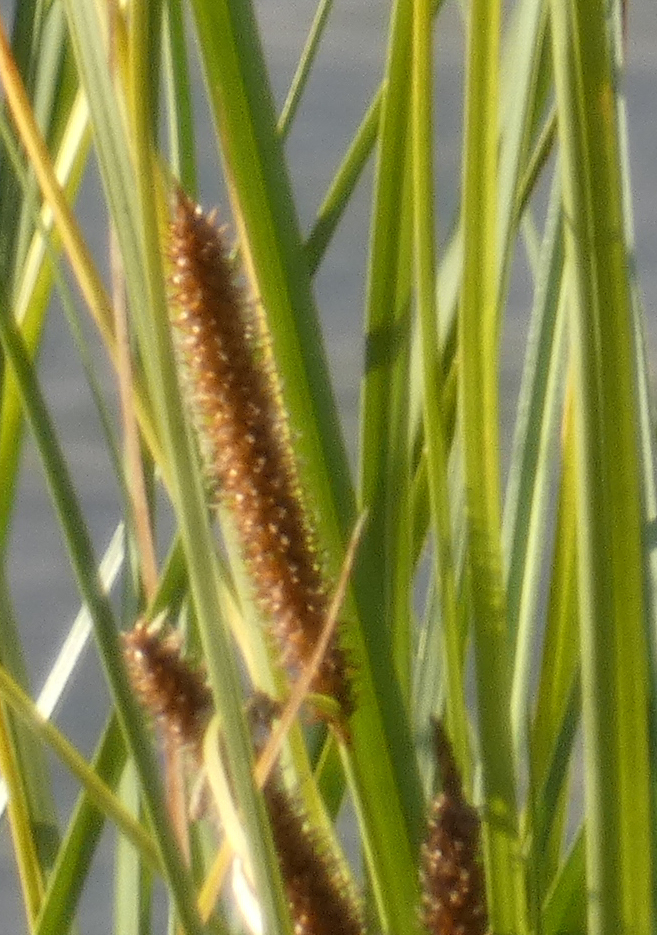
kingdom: Plantae
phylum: Tracheophyta
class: Liliopsida
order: Poales
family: Cyperaceae
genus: Carex
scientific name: Carex utriculata
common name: Beaked sedge
